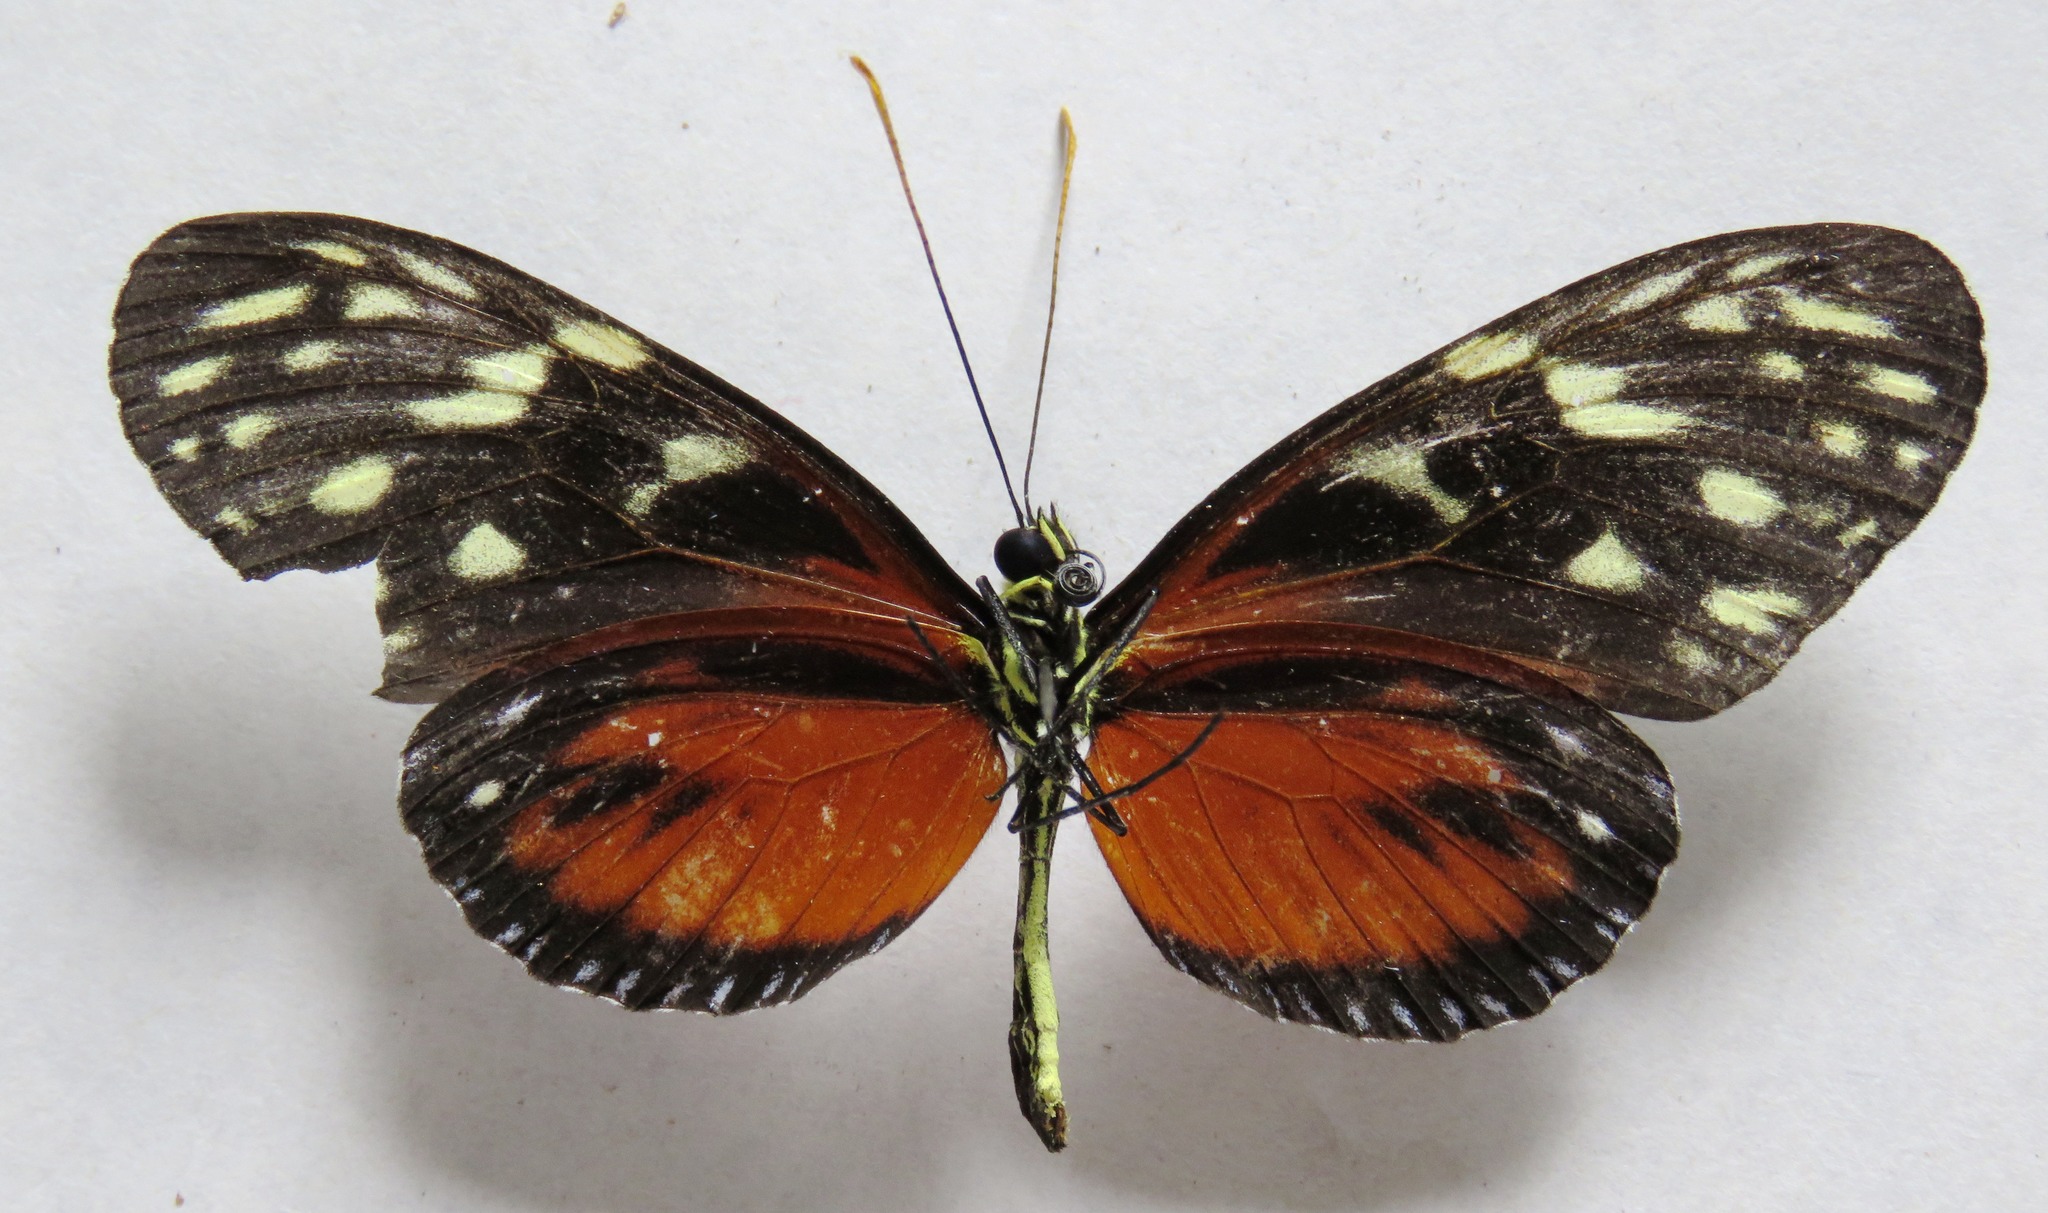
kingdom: Animalia
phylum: Arthropoda
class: Insecta
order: Lepidoptera
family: Nymphalidae
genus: Heliconius
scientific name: Heliconius hecale
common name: Tiger longwing
